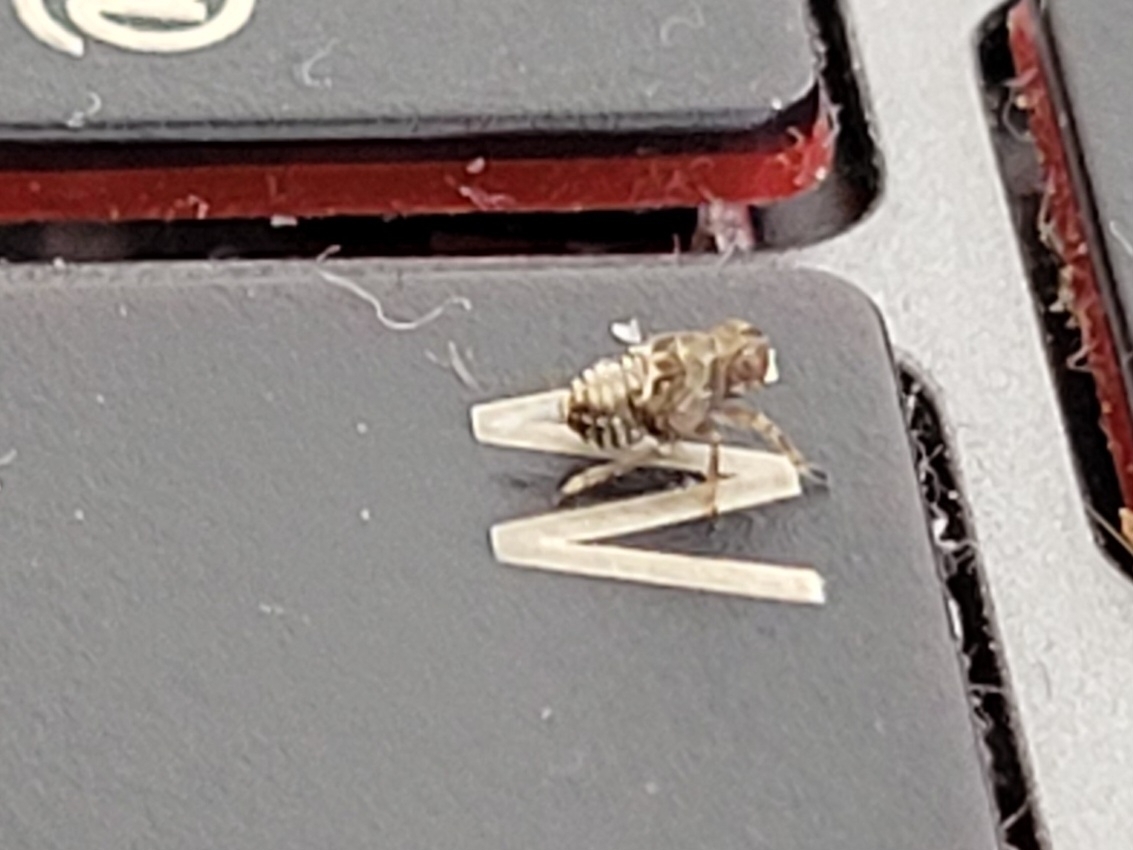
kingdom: Animalia
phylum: Arthropoda
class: Insecta
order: Hemiptera
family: Issidae
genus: Issus
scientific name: Issus coleoptratus
